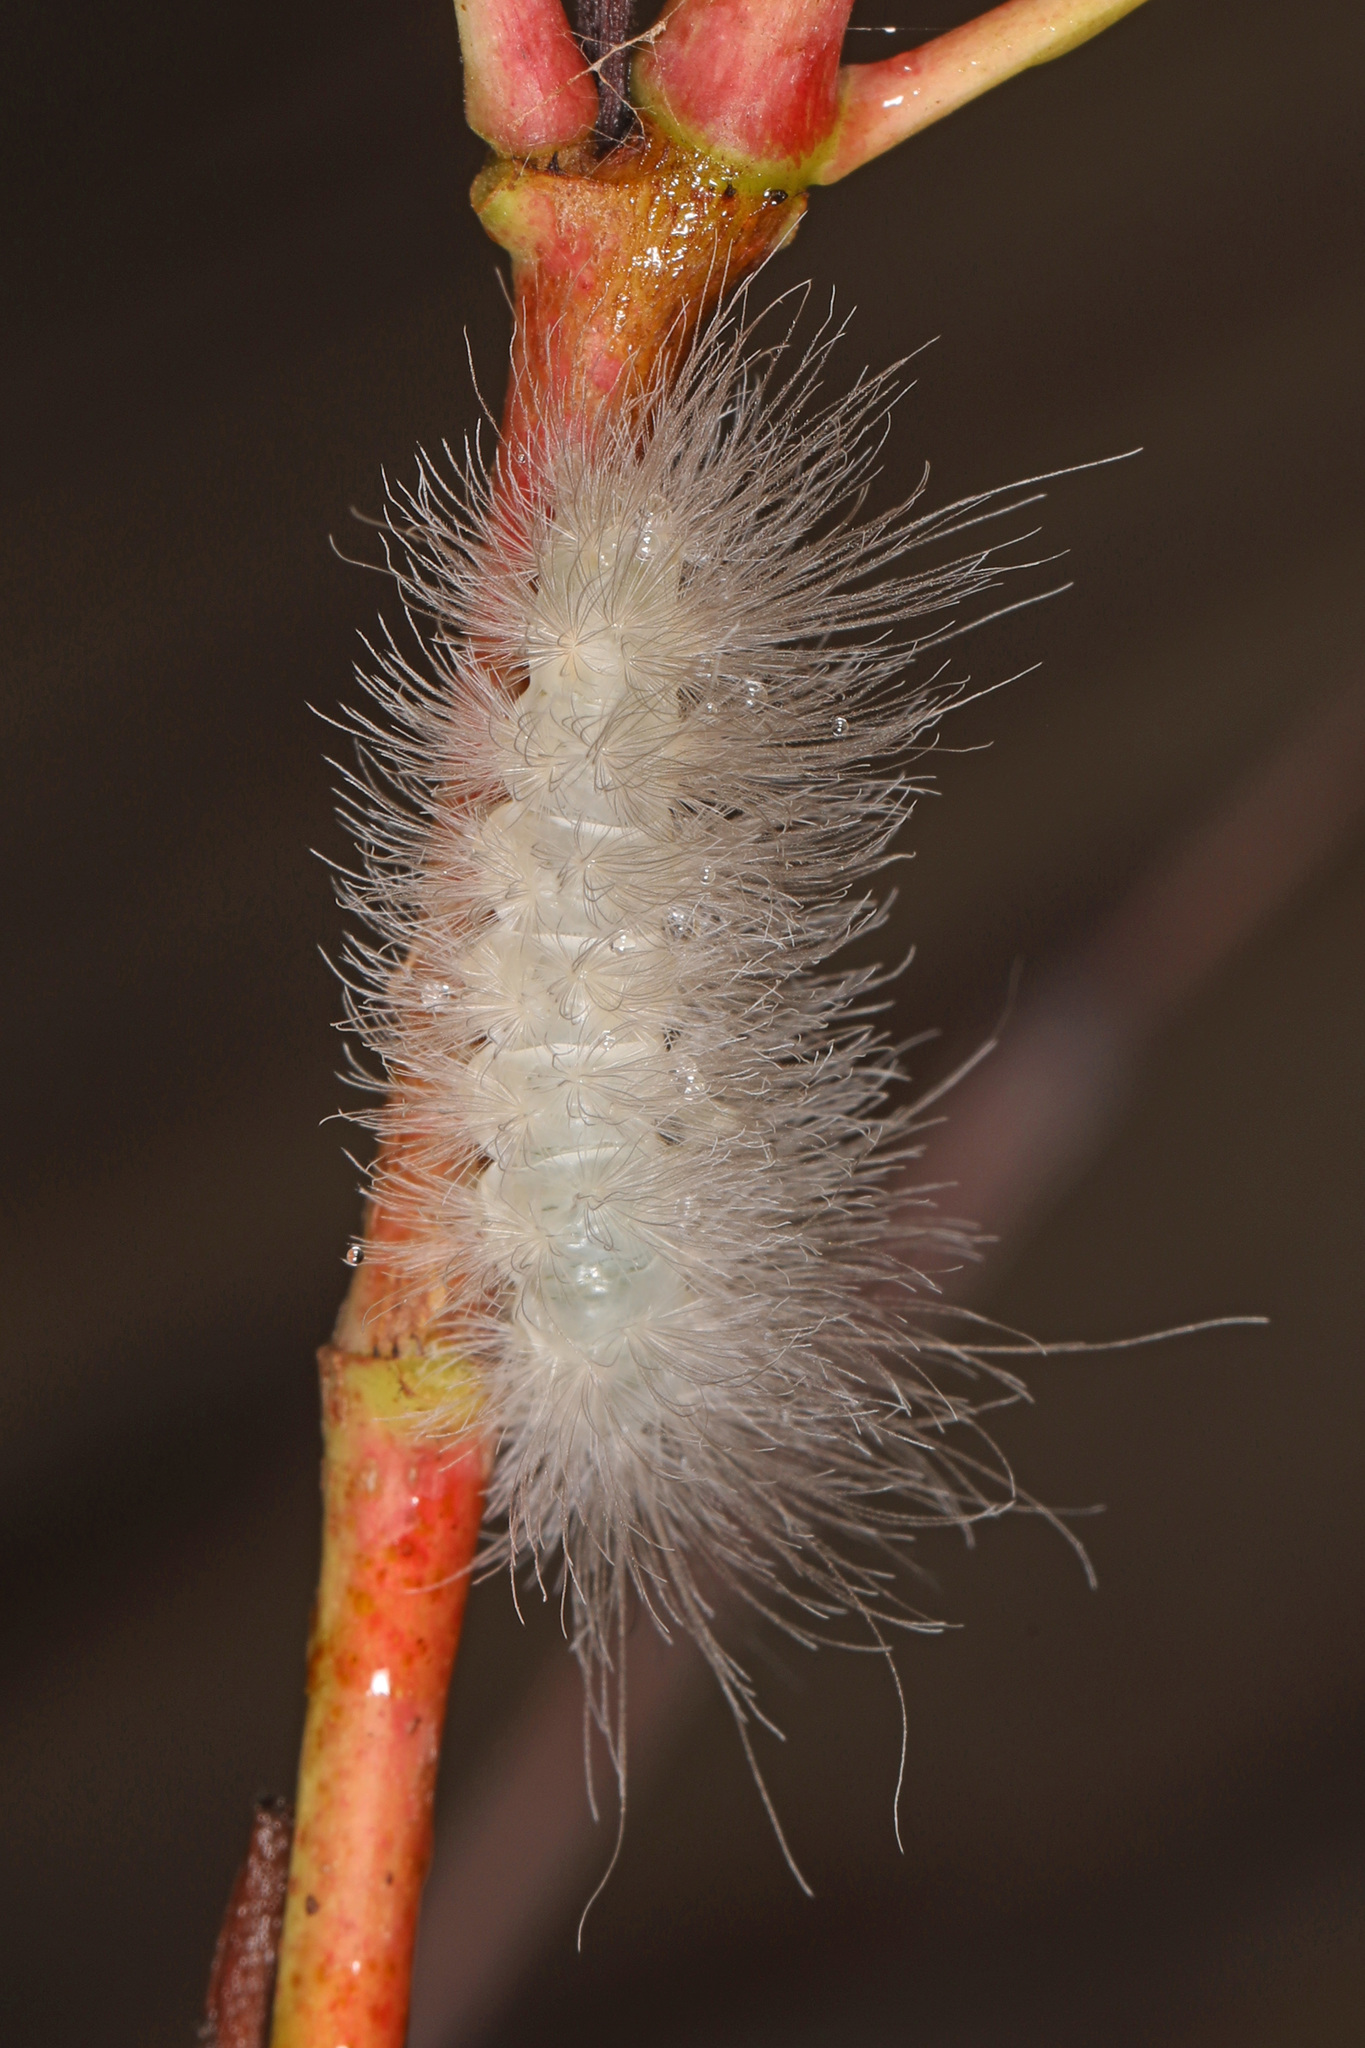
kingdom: Animalia
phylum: Arthropoda
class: Insecta
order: Lepidoptera
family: Erebidae
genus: Cycnia
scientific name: Cycnia tenera
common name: Delicate cycnia moth
